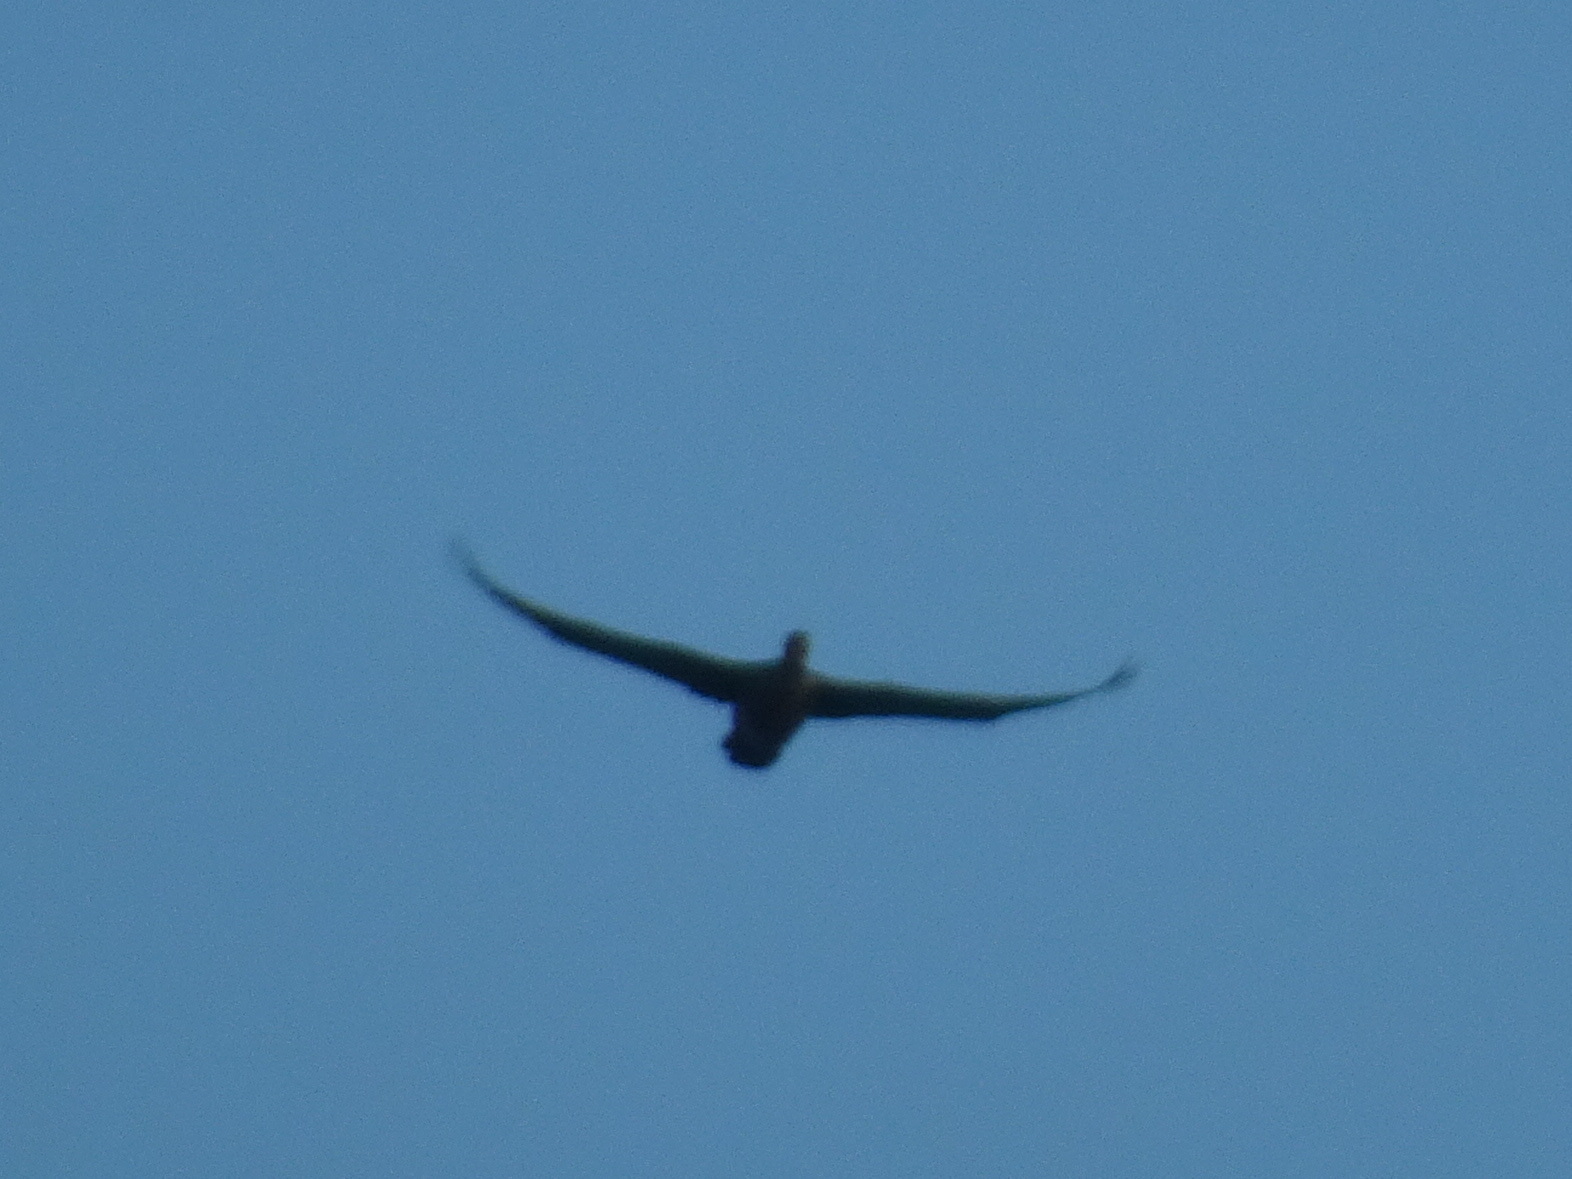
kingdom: Animalia
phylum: Chordata
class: Aves
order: Suliformes
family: Phalacrocoracidae
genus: Phalacrocorax
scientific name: Phalacrocorax auritus
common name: Double-crested cormorant
